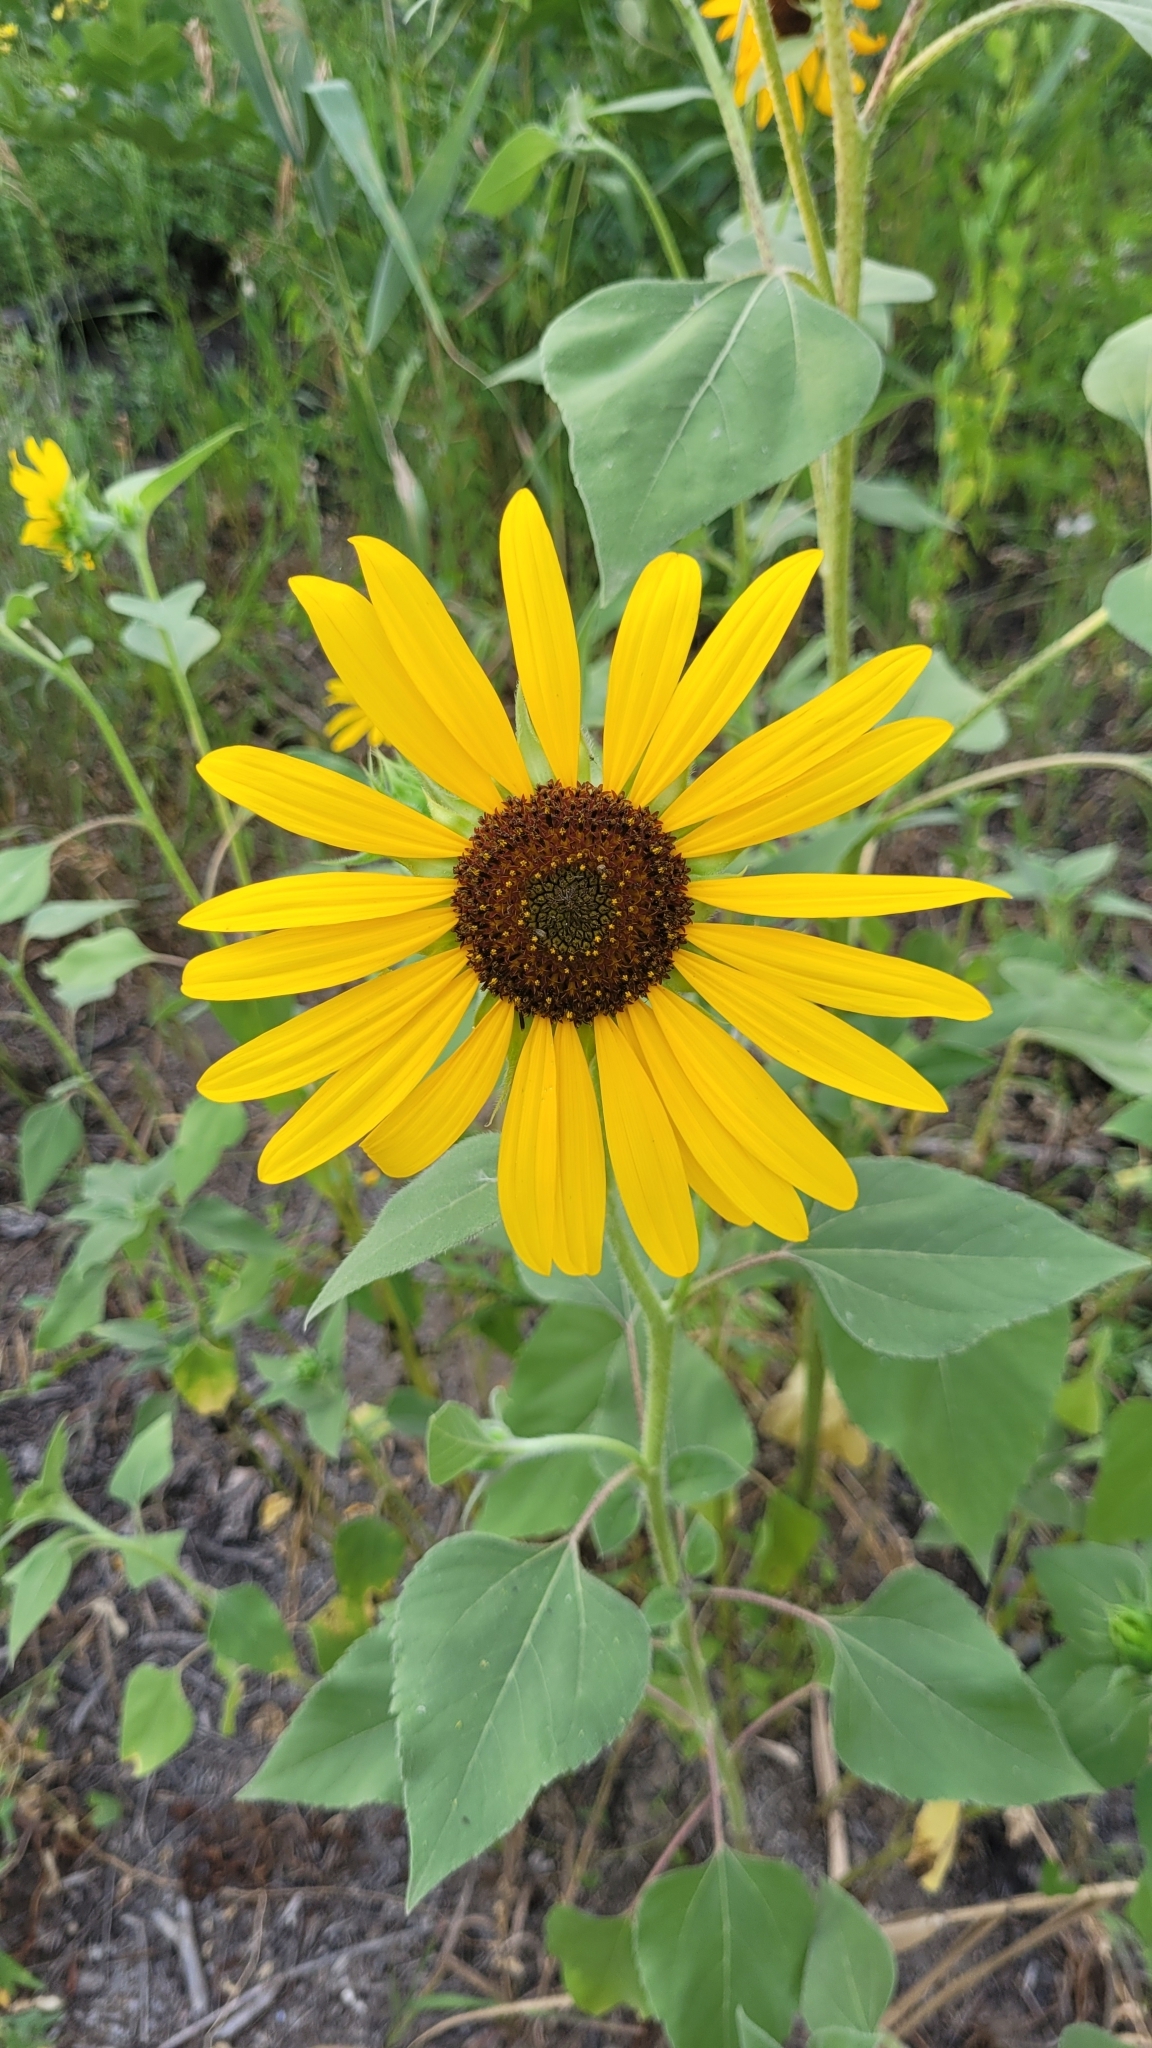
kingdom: Plantae
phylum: Tracheophyta
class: Magnoliopsida
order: Asterales
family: Asteraceae
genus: Helianthus
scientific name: Helianthus annuus
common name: Sunflower
